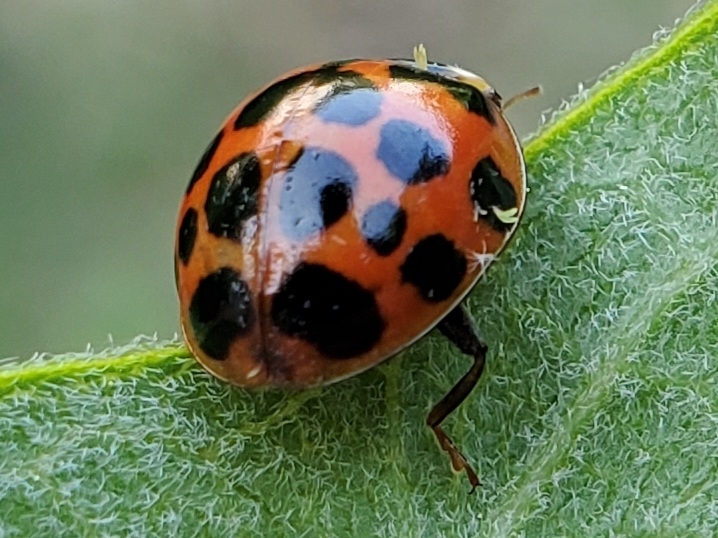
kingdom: Animalia
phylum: Arthropoda
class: Insecta
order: Coleoptera
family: Coccinellidae
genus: Harmonia
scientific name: Harmonia axyridis
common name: Harlequin ladybird
